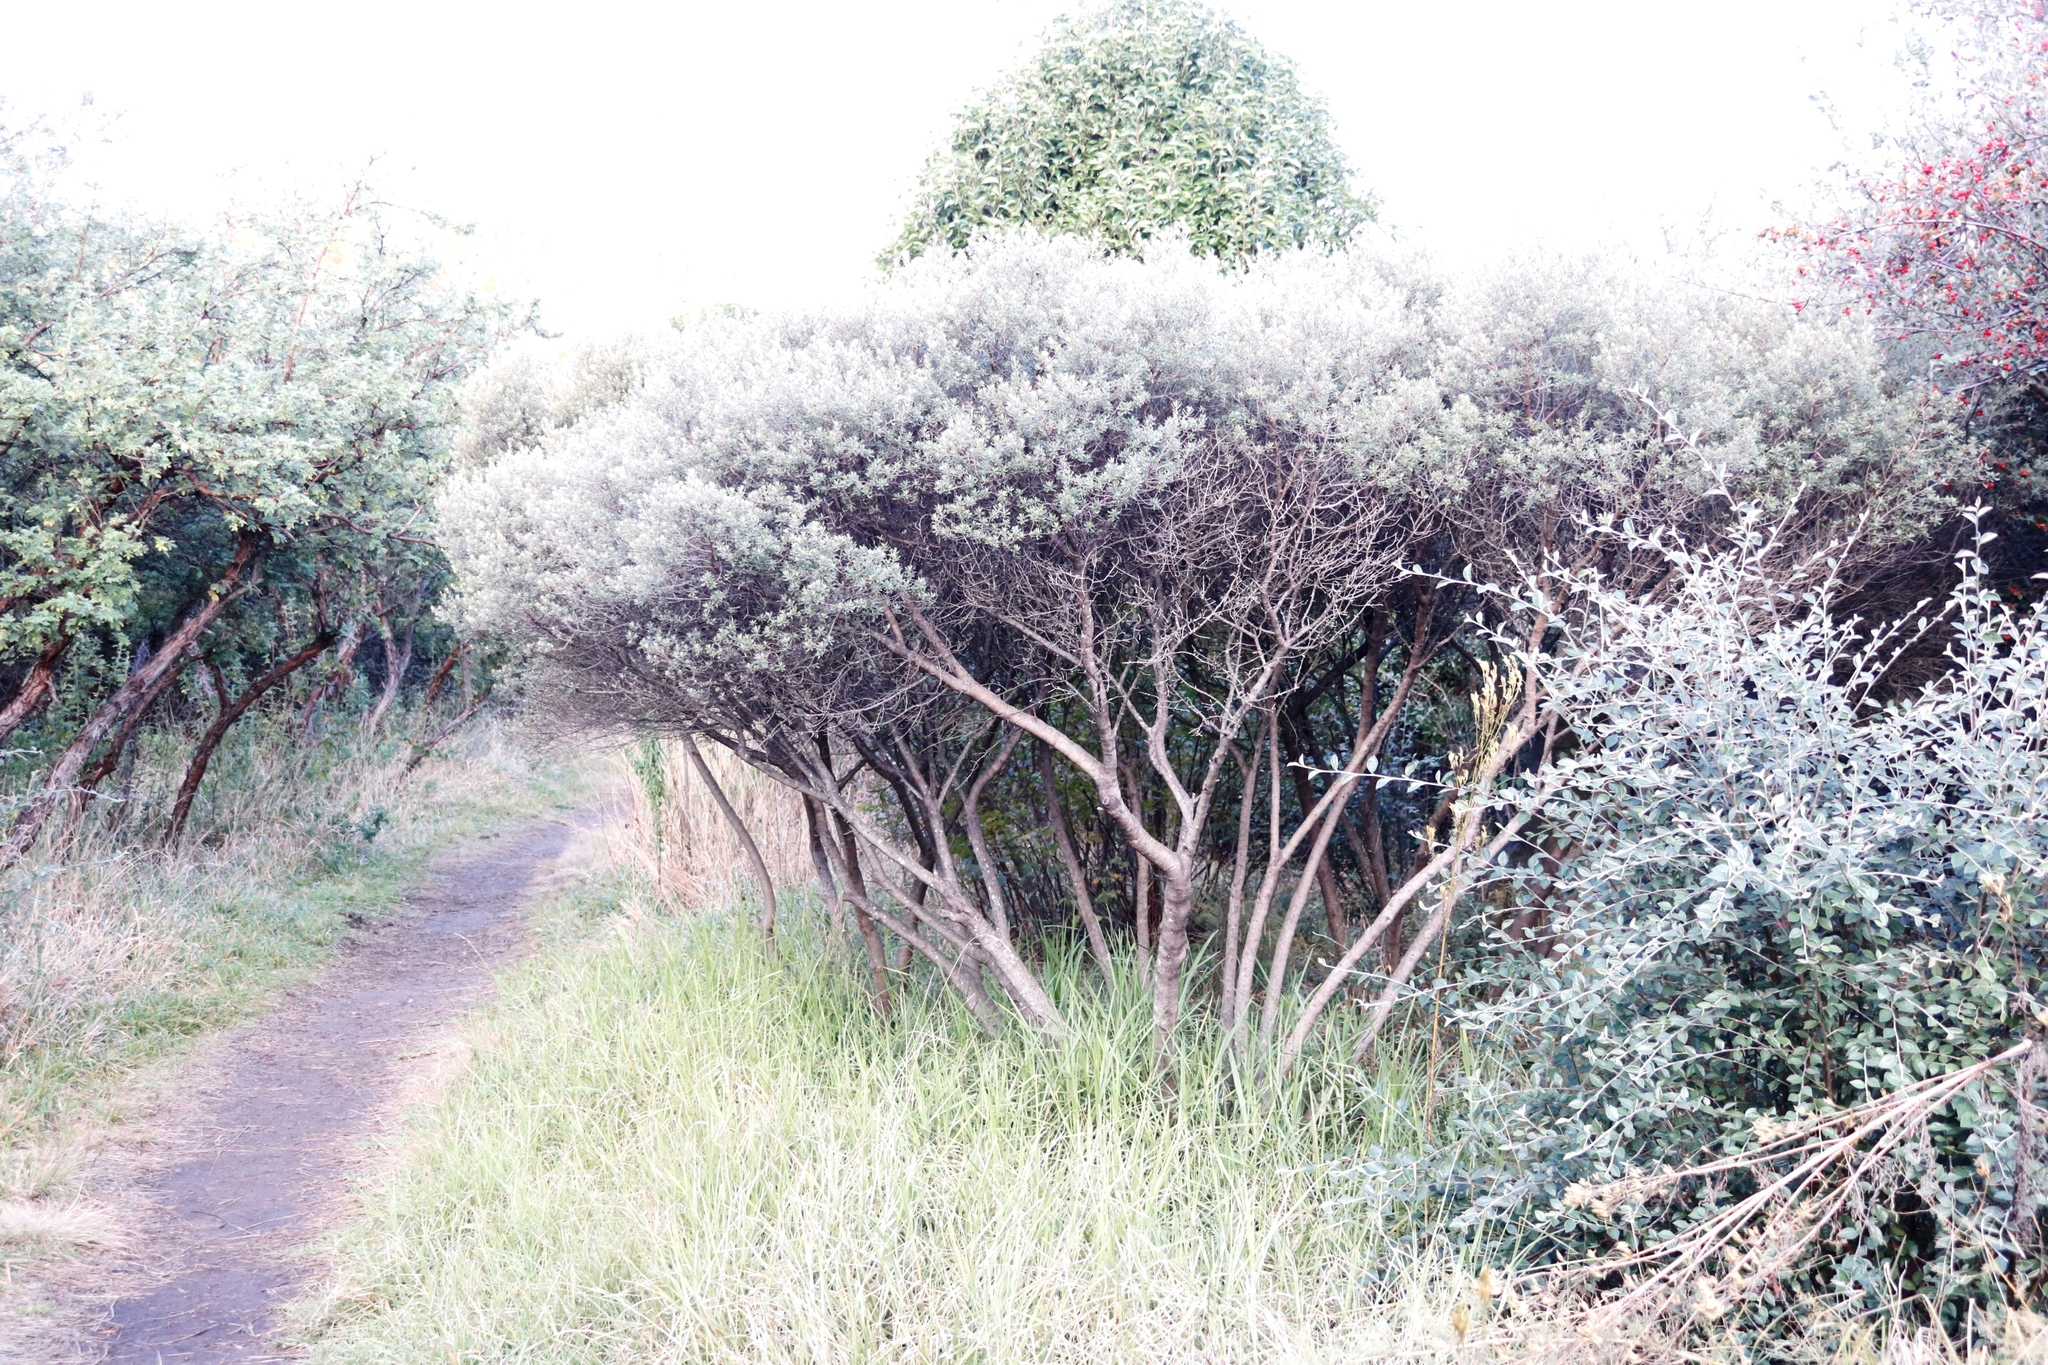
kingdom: Plantae
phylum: Tracheophyta
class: Magnoliopsida
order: Ericales
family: Ebenaceae
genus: Diospyros
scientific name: Diospyros pubescens
